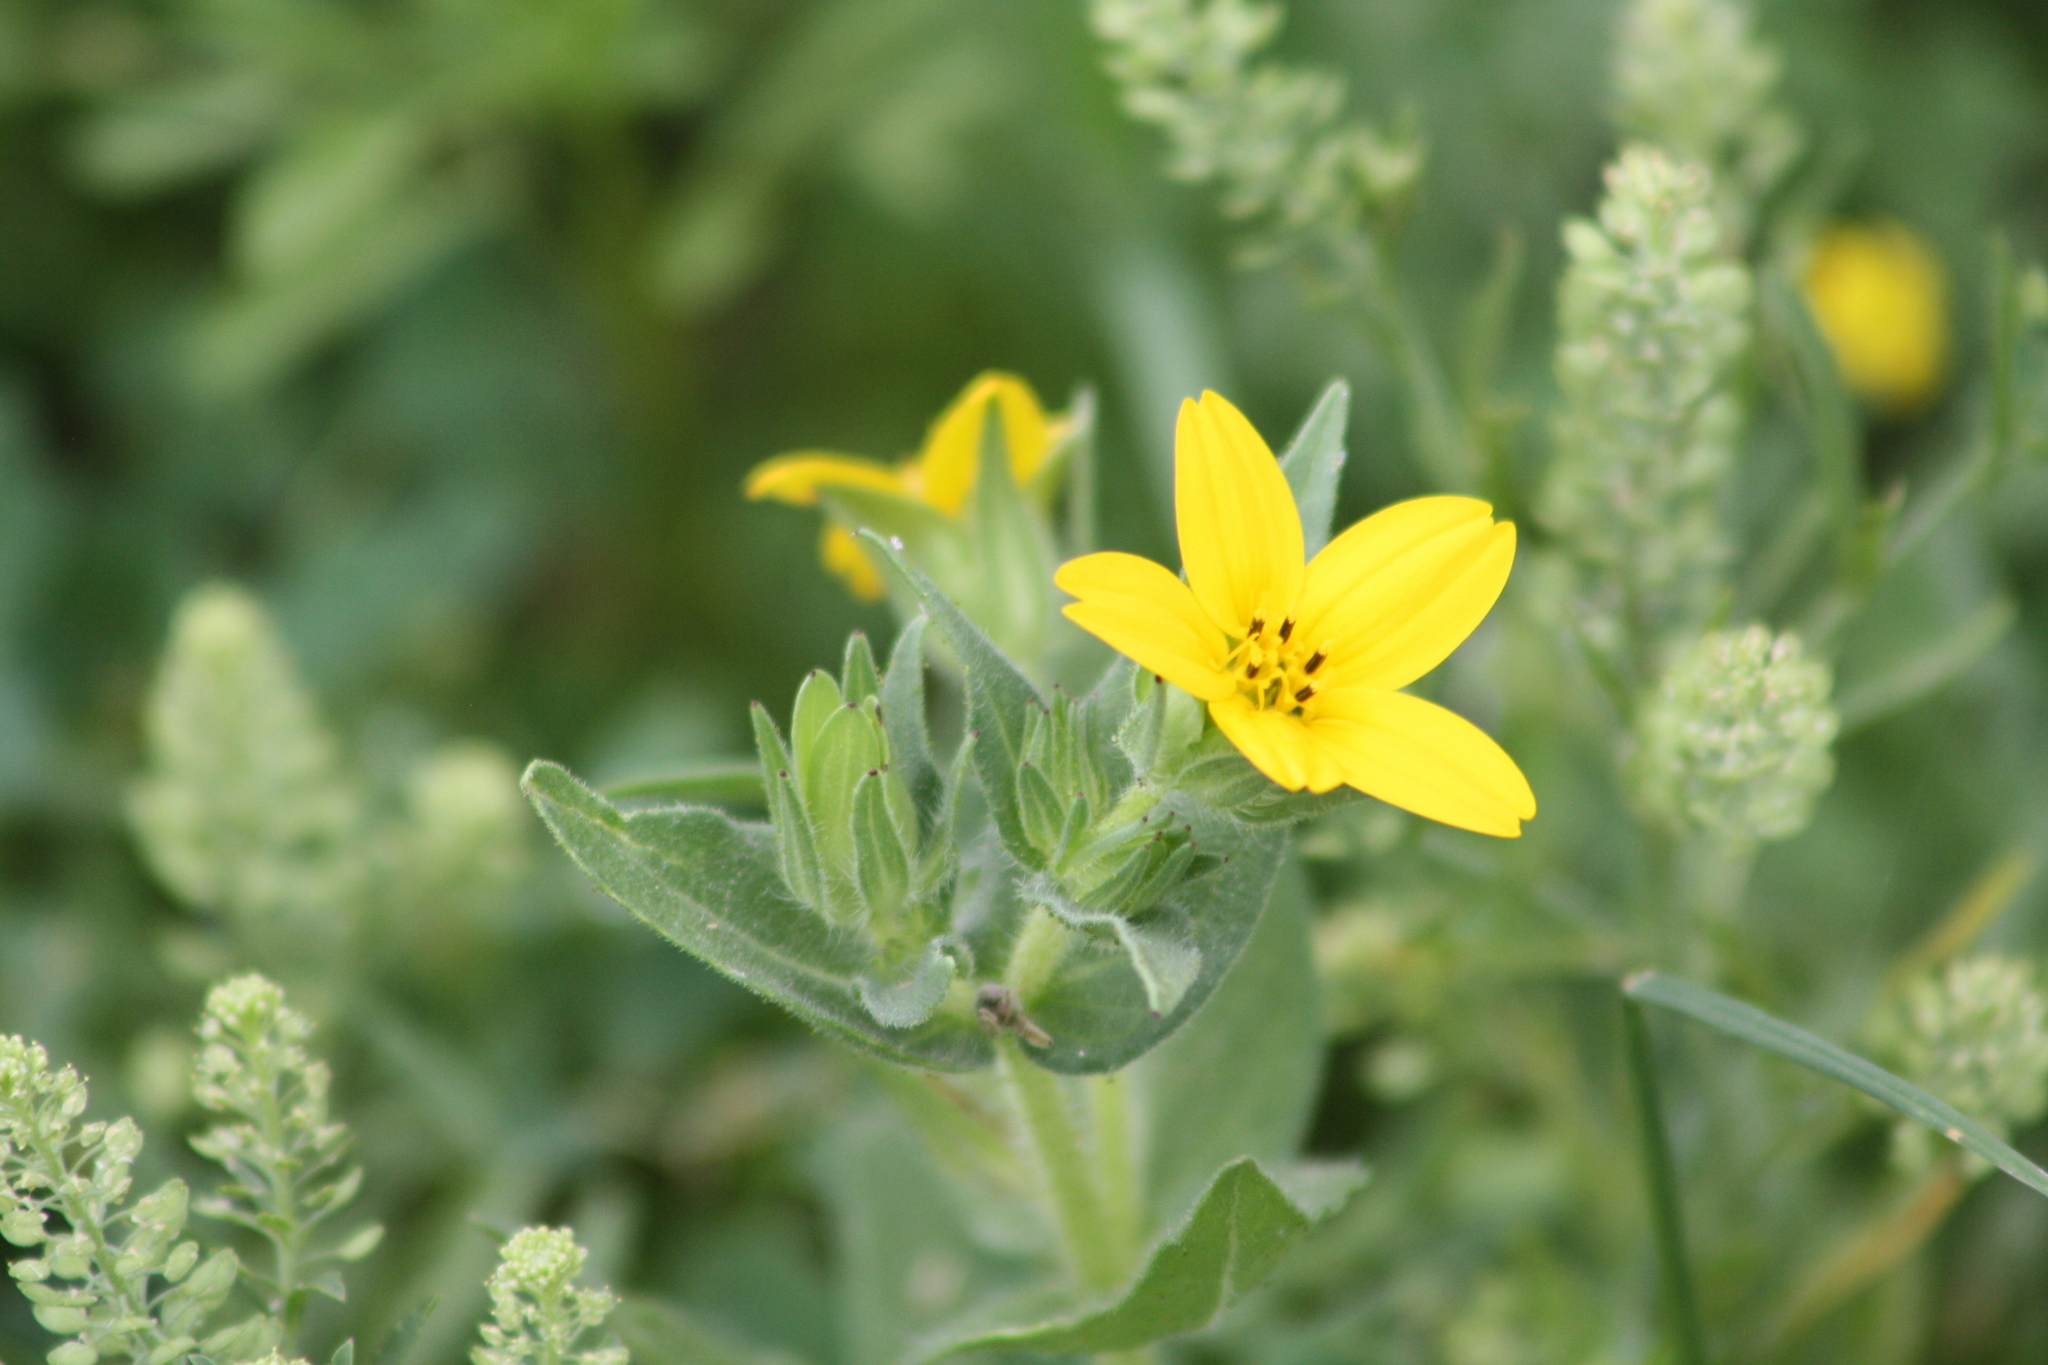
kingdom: Plantae
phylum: Tracheophyta
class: Magnoliopsida
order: Asterales
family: Asteraceae
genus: Lindheimera
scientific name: Lindheimera texana
